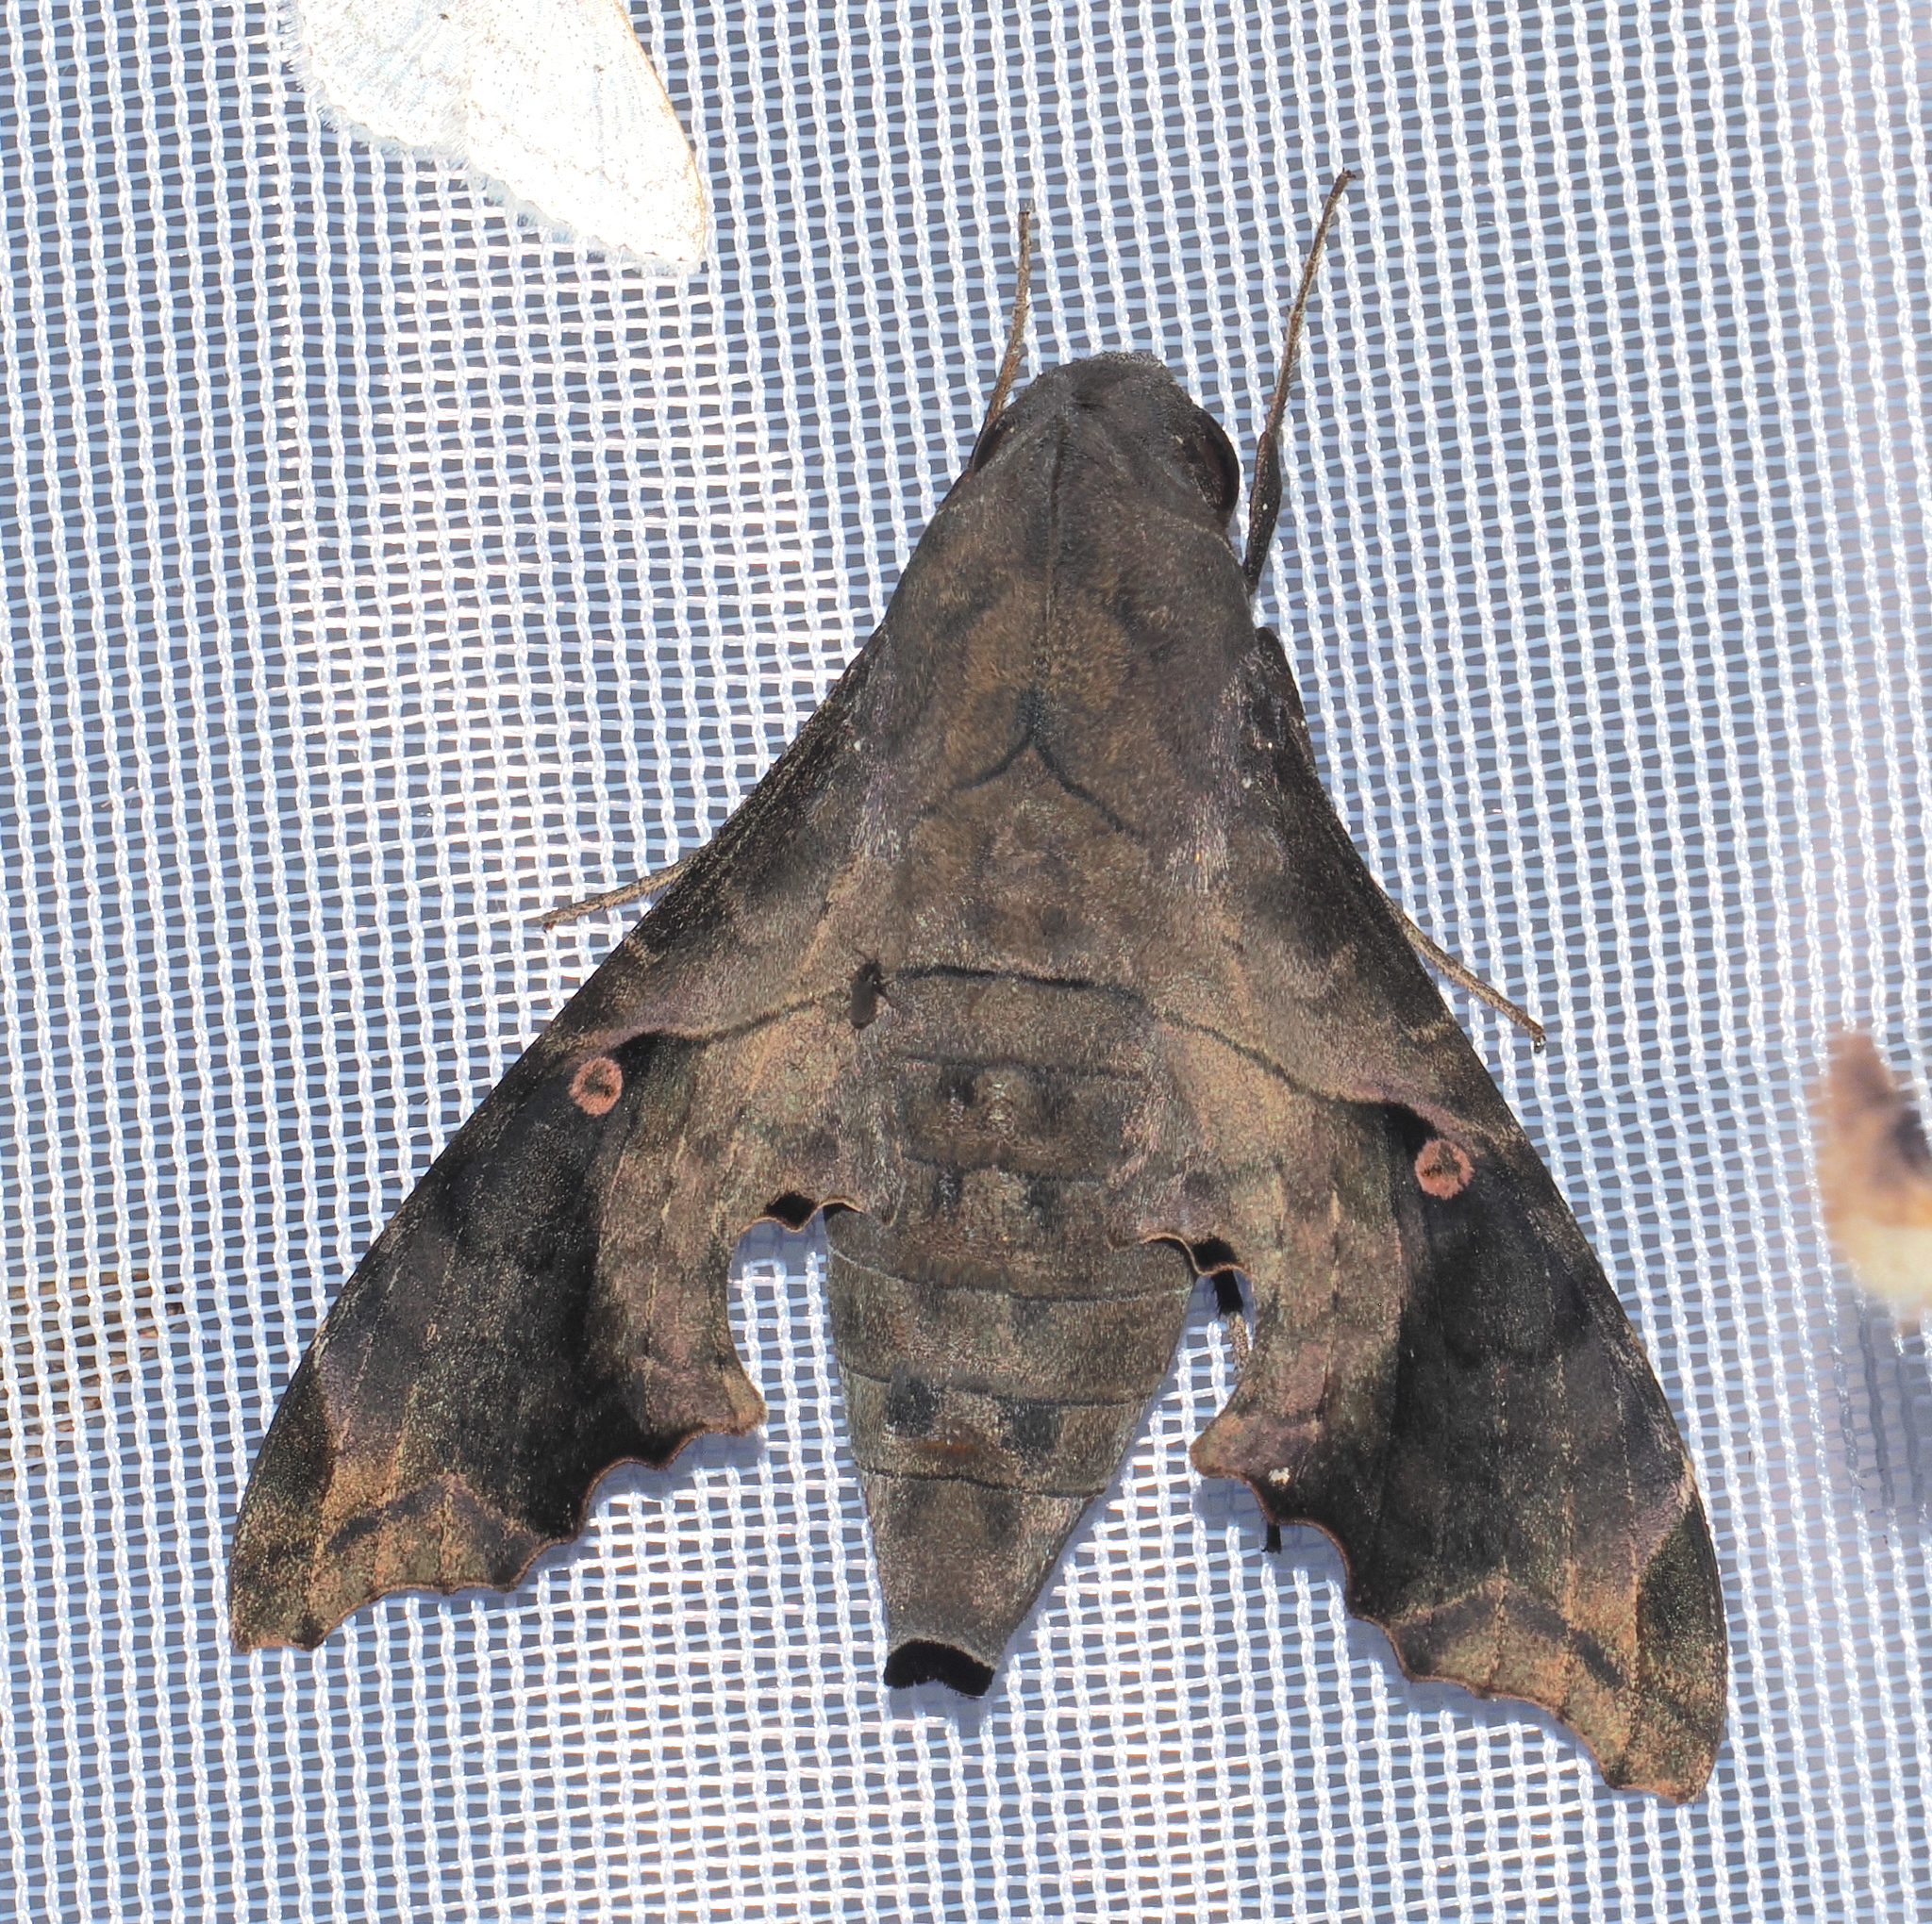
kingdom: Animalia
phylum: Arthropoda
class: Insecta
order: Lepidoptera
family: Sphingidae
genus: Enyo
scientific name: Enyo lugubris
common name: Mournful sphinx
